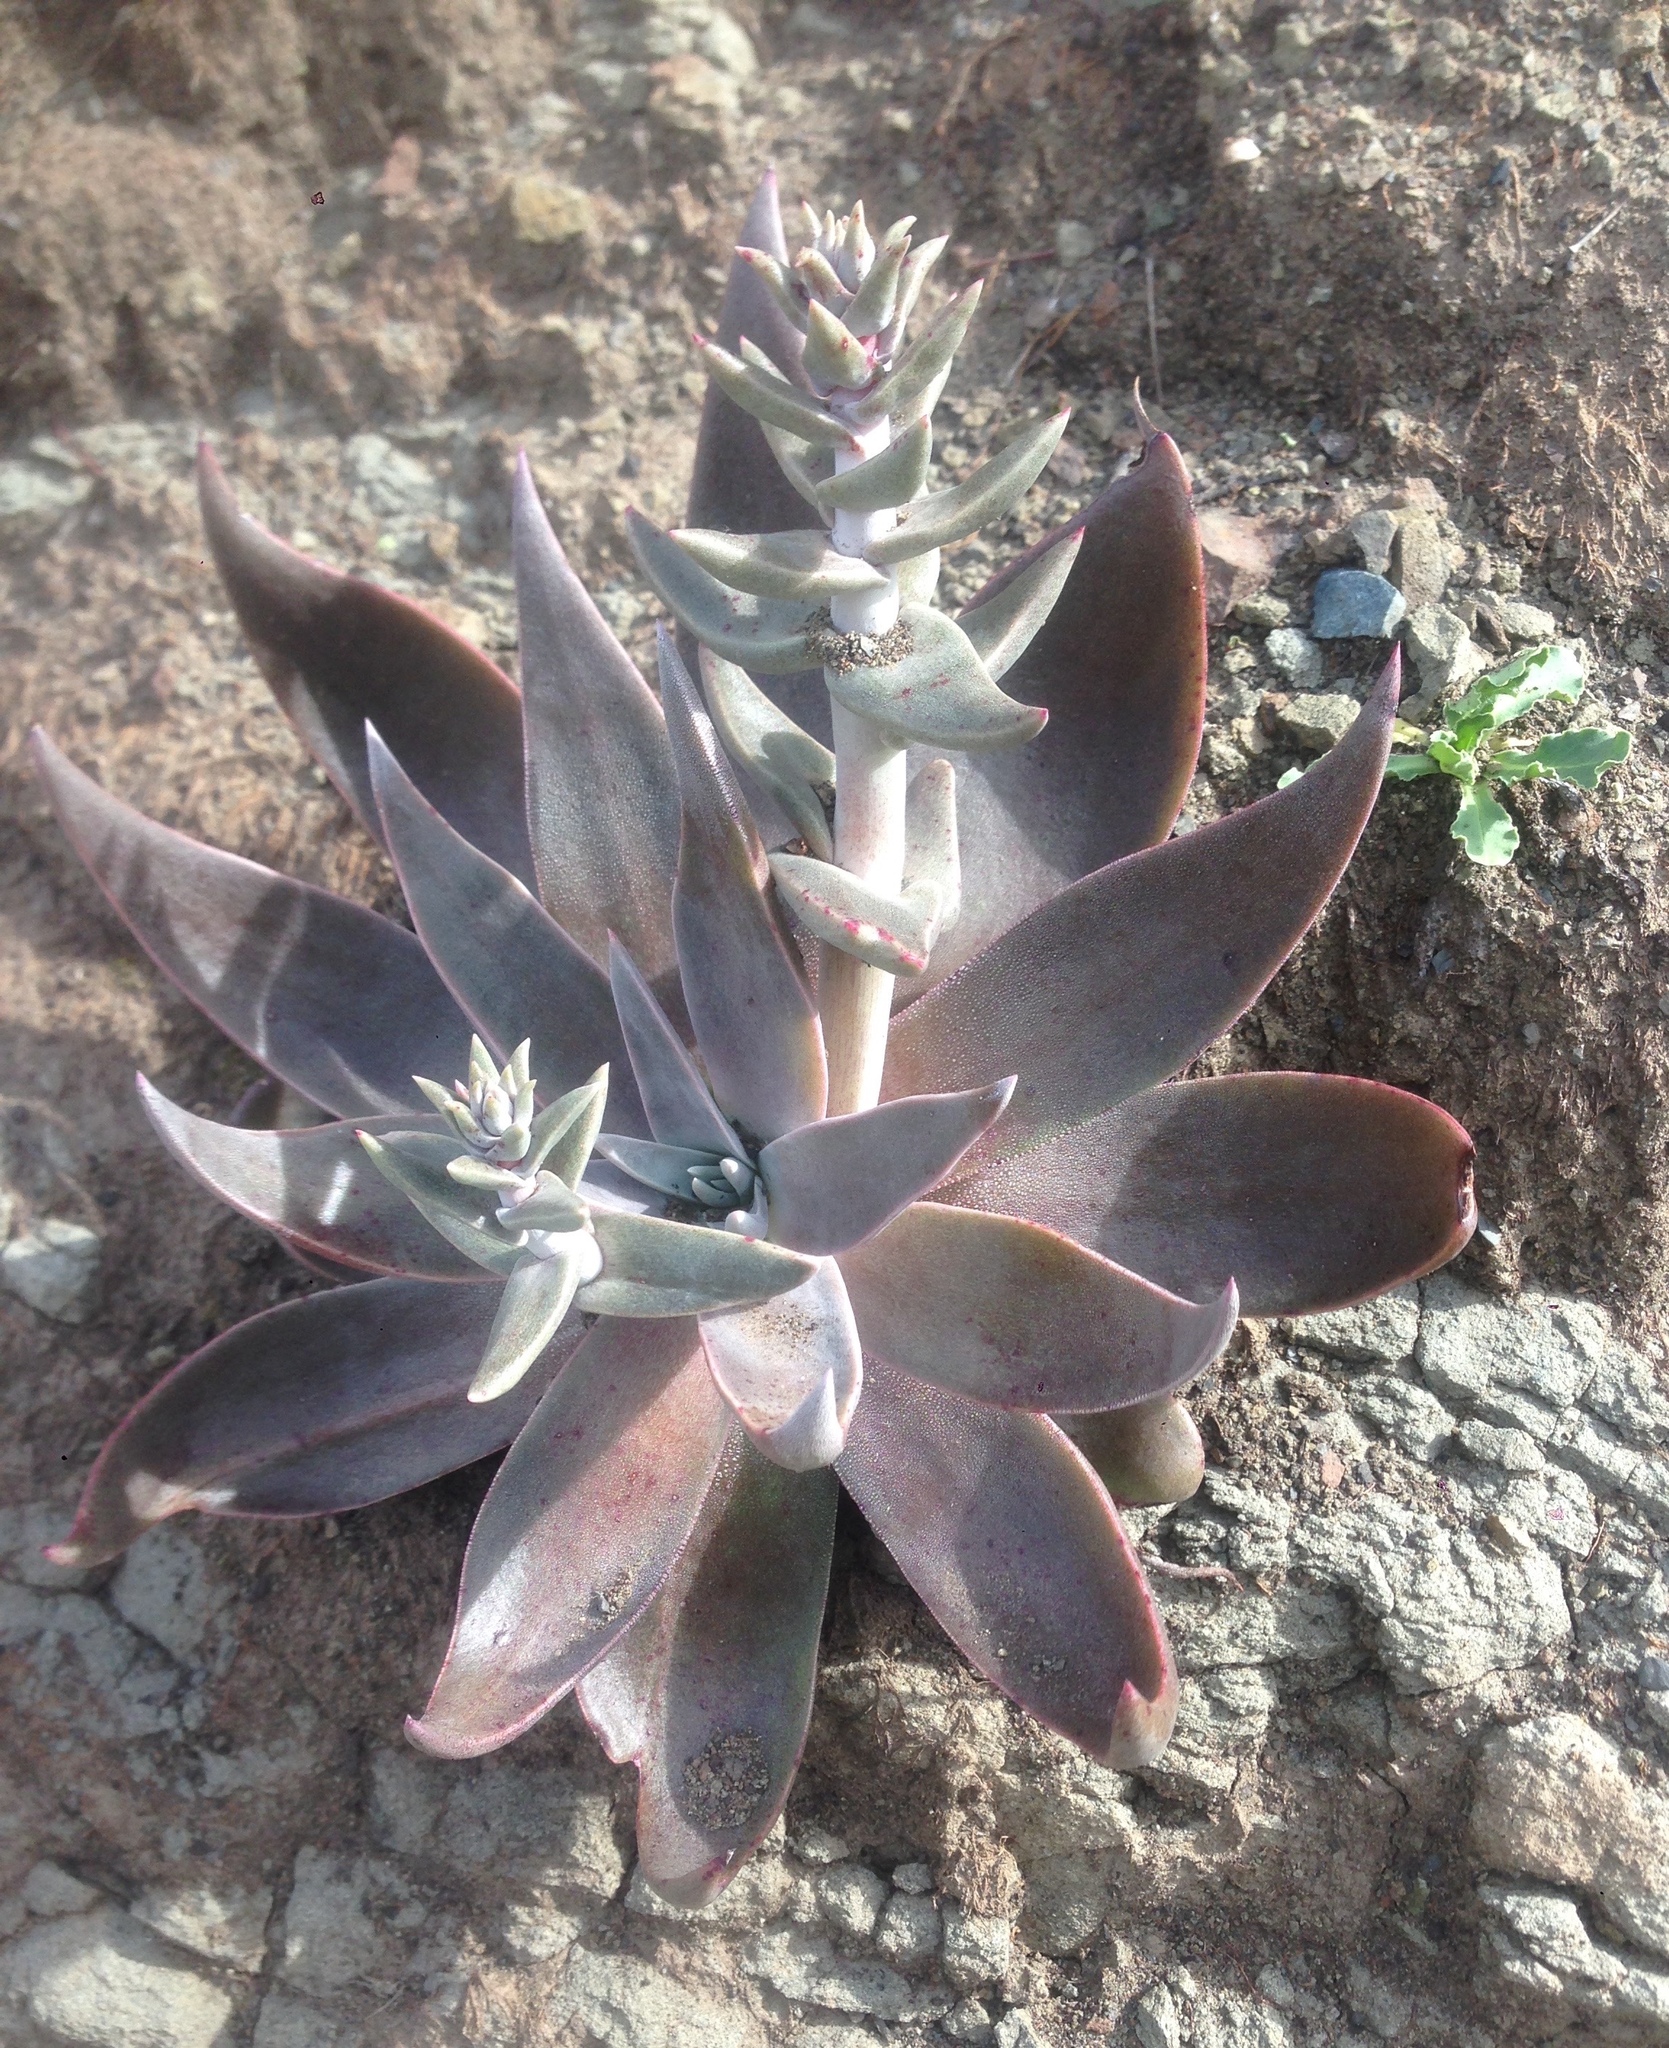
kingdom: Plantae
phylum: Tracheophyta
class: Magnoliopsida
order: Saxifragales
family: Crassulaceae
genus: Dudleya
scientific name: Dudleya cymosa
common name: Canyon dudleya
